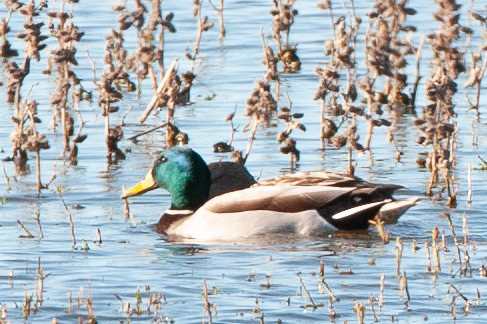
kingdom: Animalia
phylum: Chordata
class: Aves
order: Anseriformes
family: Anatidae
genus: Anas
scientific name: Anas platyrhynchos
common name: Mallard
